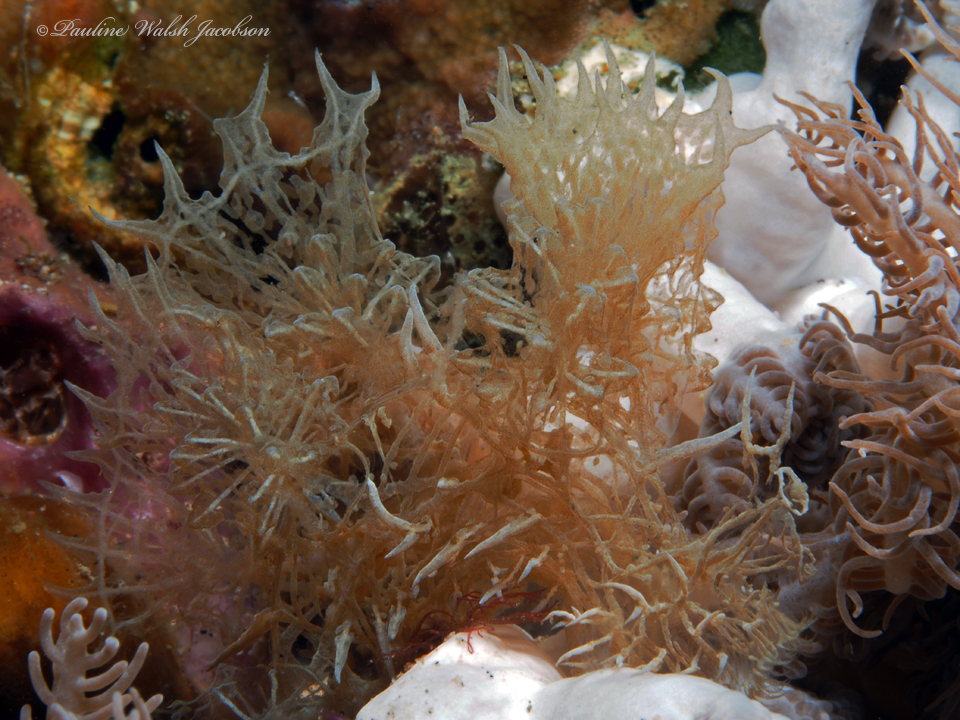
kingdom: Animalia
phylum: Mollusca
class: Gastropoda
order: Nudibranchia
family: Tethydidae
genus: Melibe
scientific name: Melibe colemani
